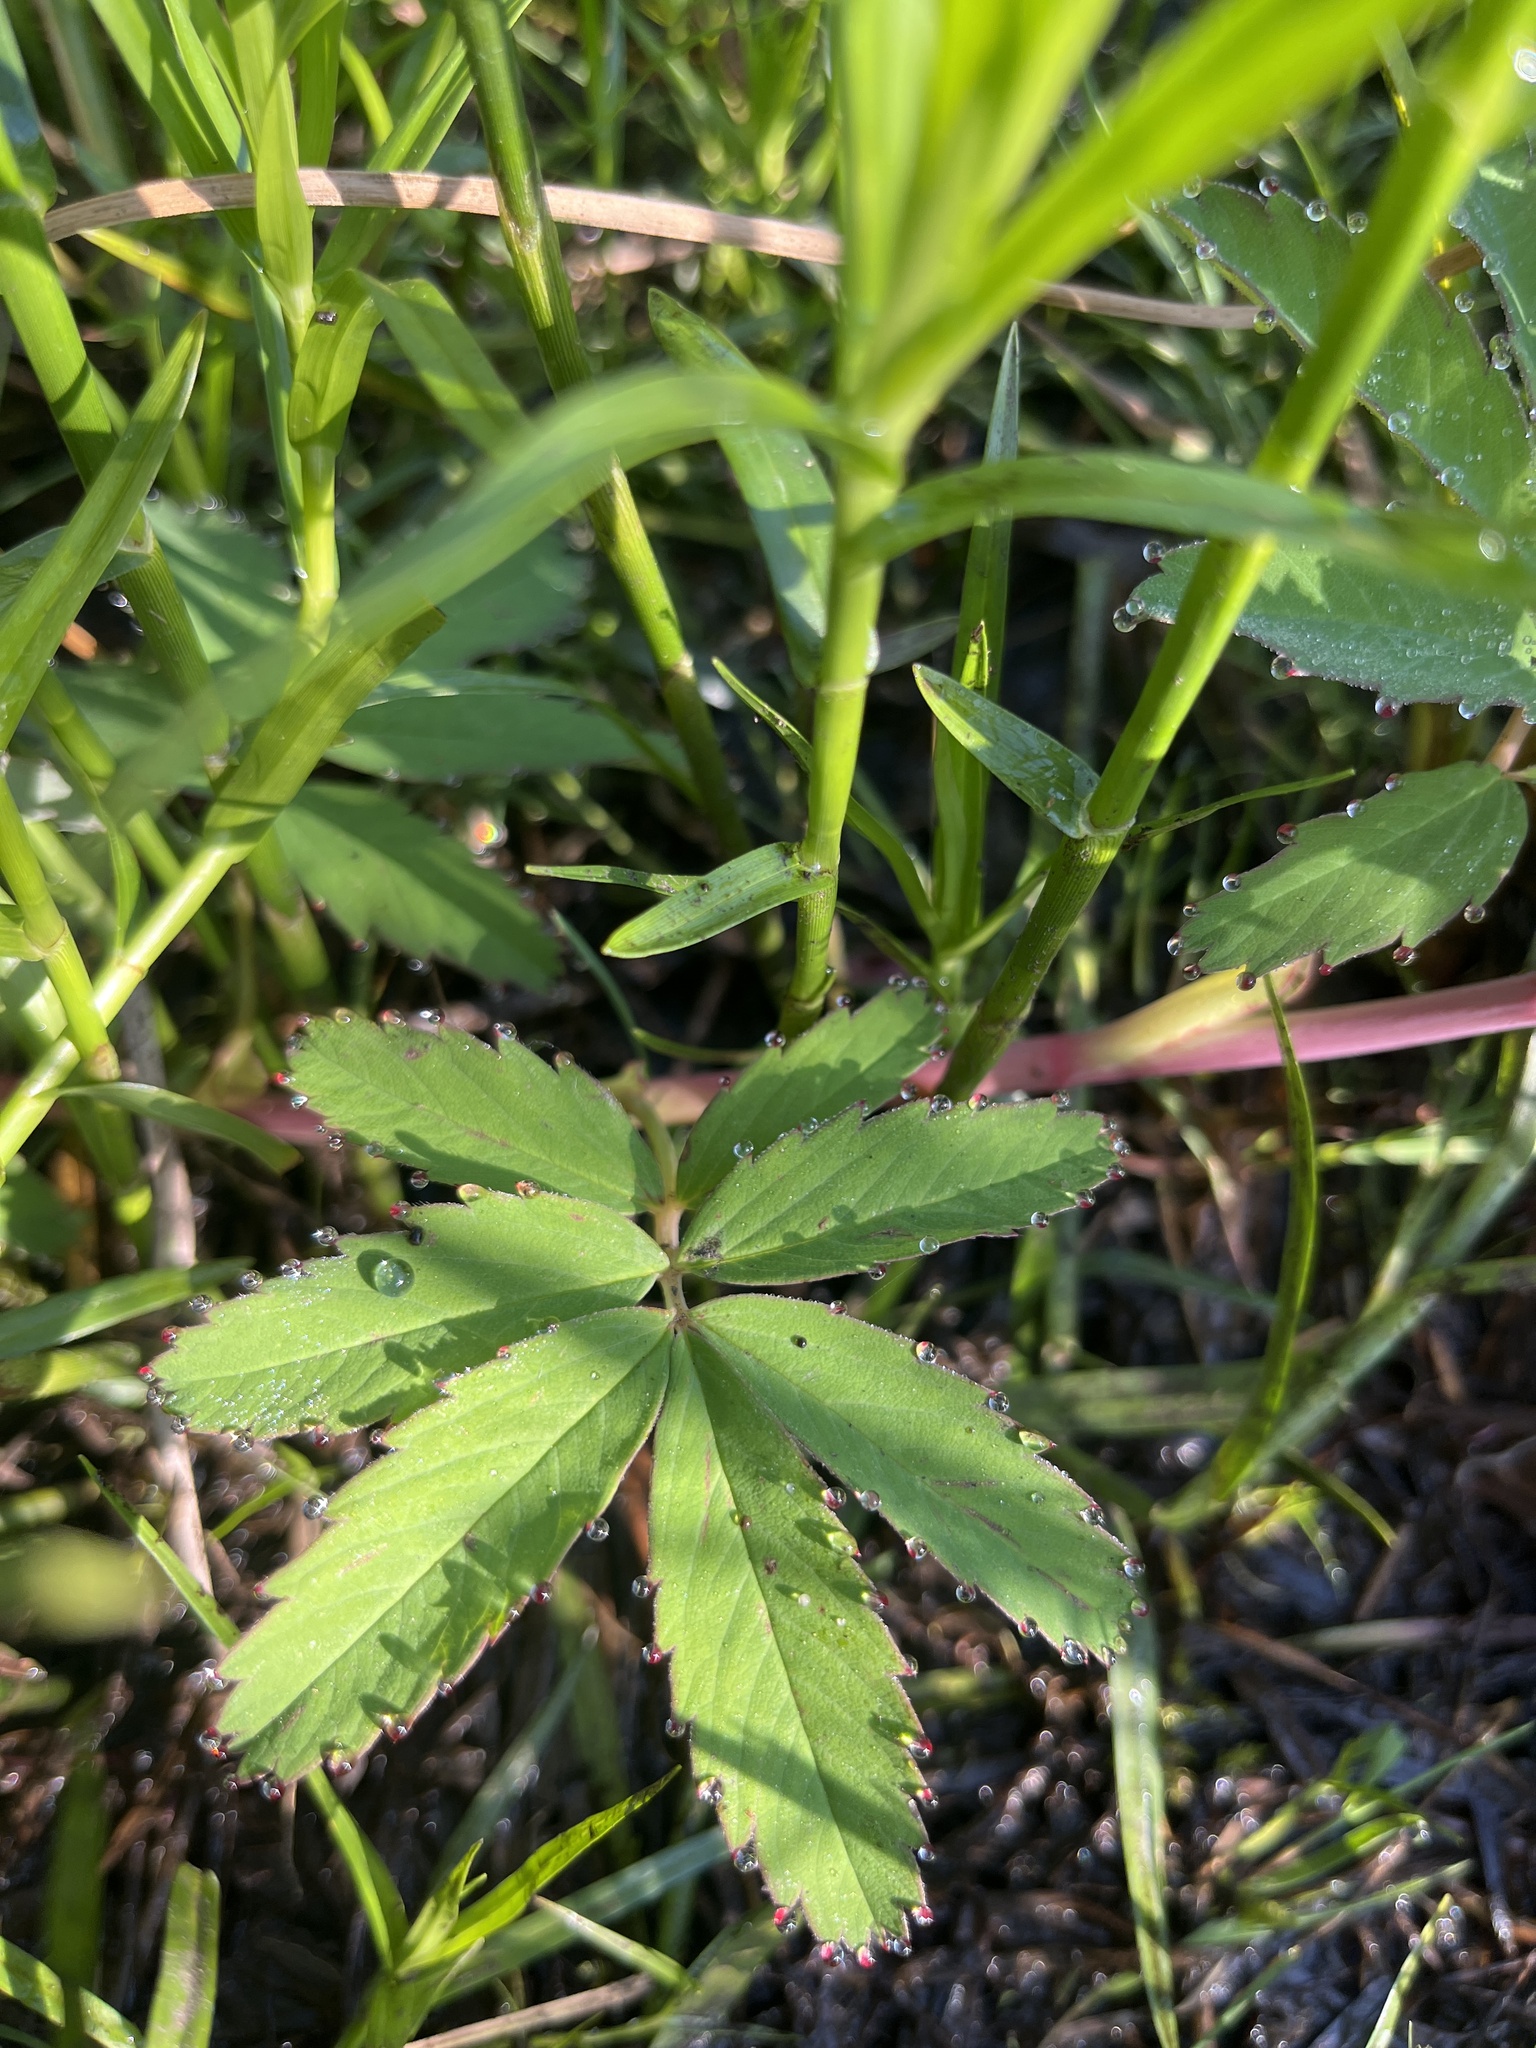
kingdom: Plantae
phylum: Tracheophyta
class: Magnoliopsida
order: Rosales
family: Rosaceae
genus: Comarum
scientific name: Comarum palustre
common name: Marsh cinquefoil
